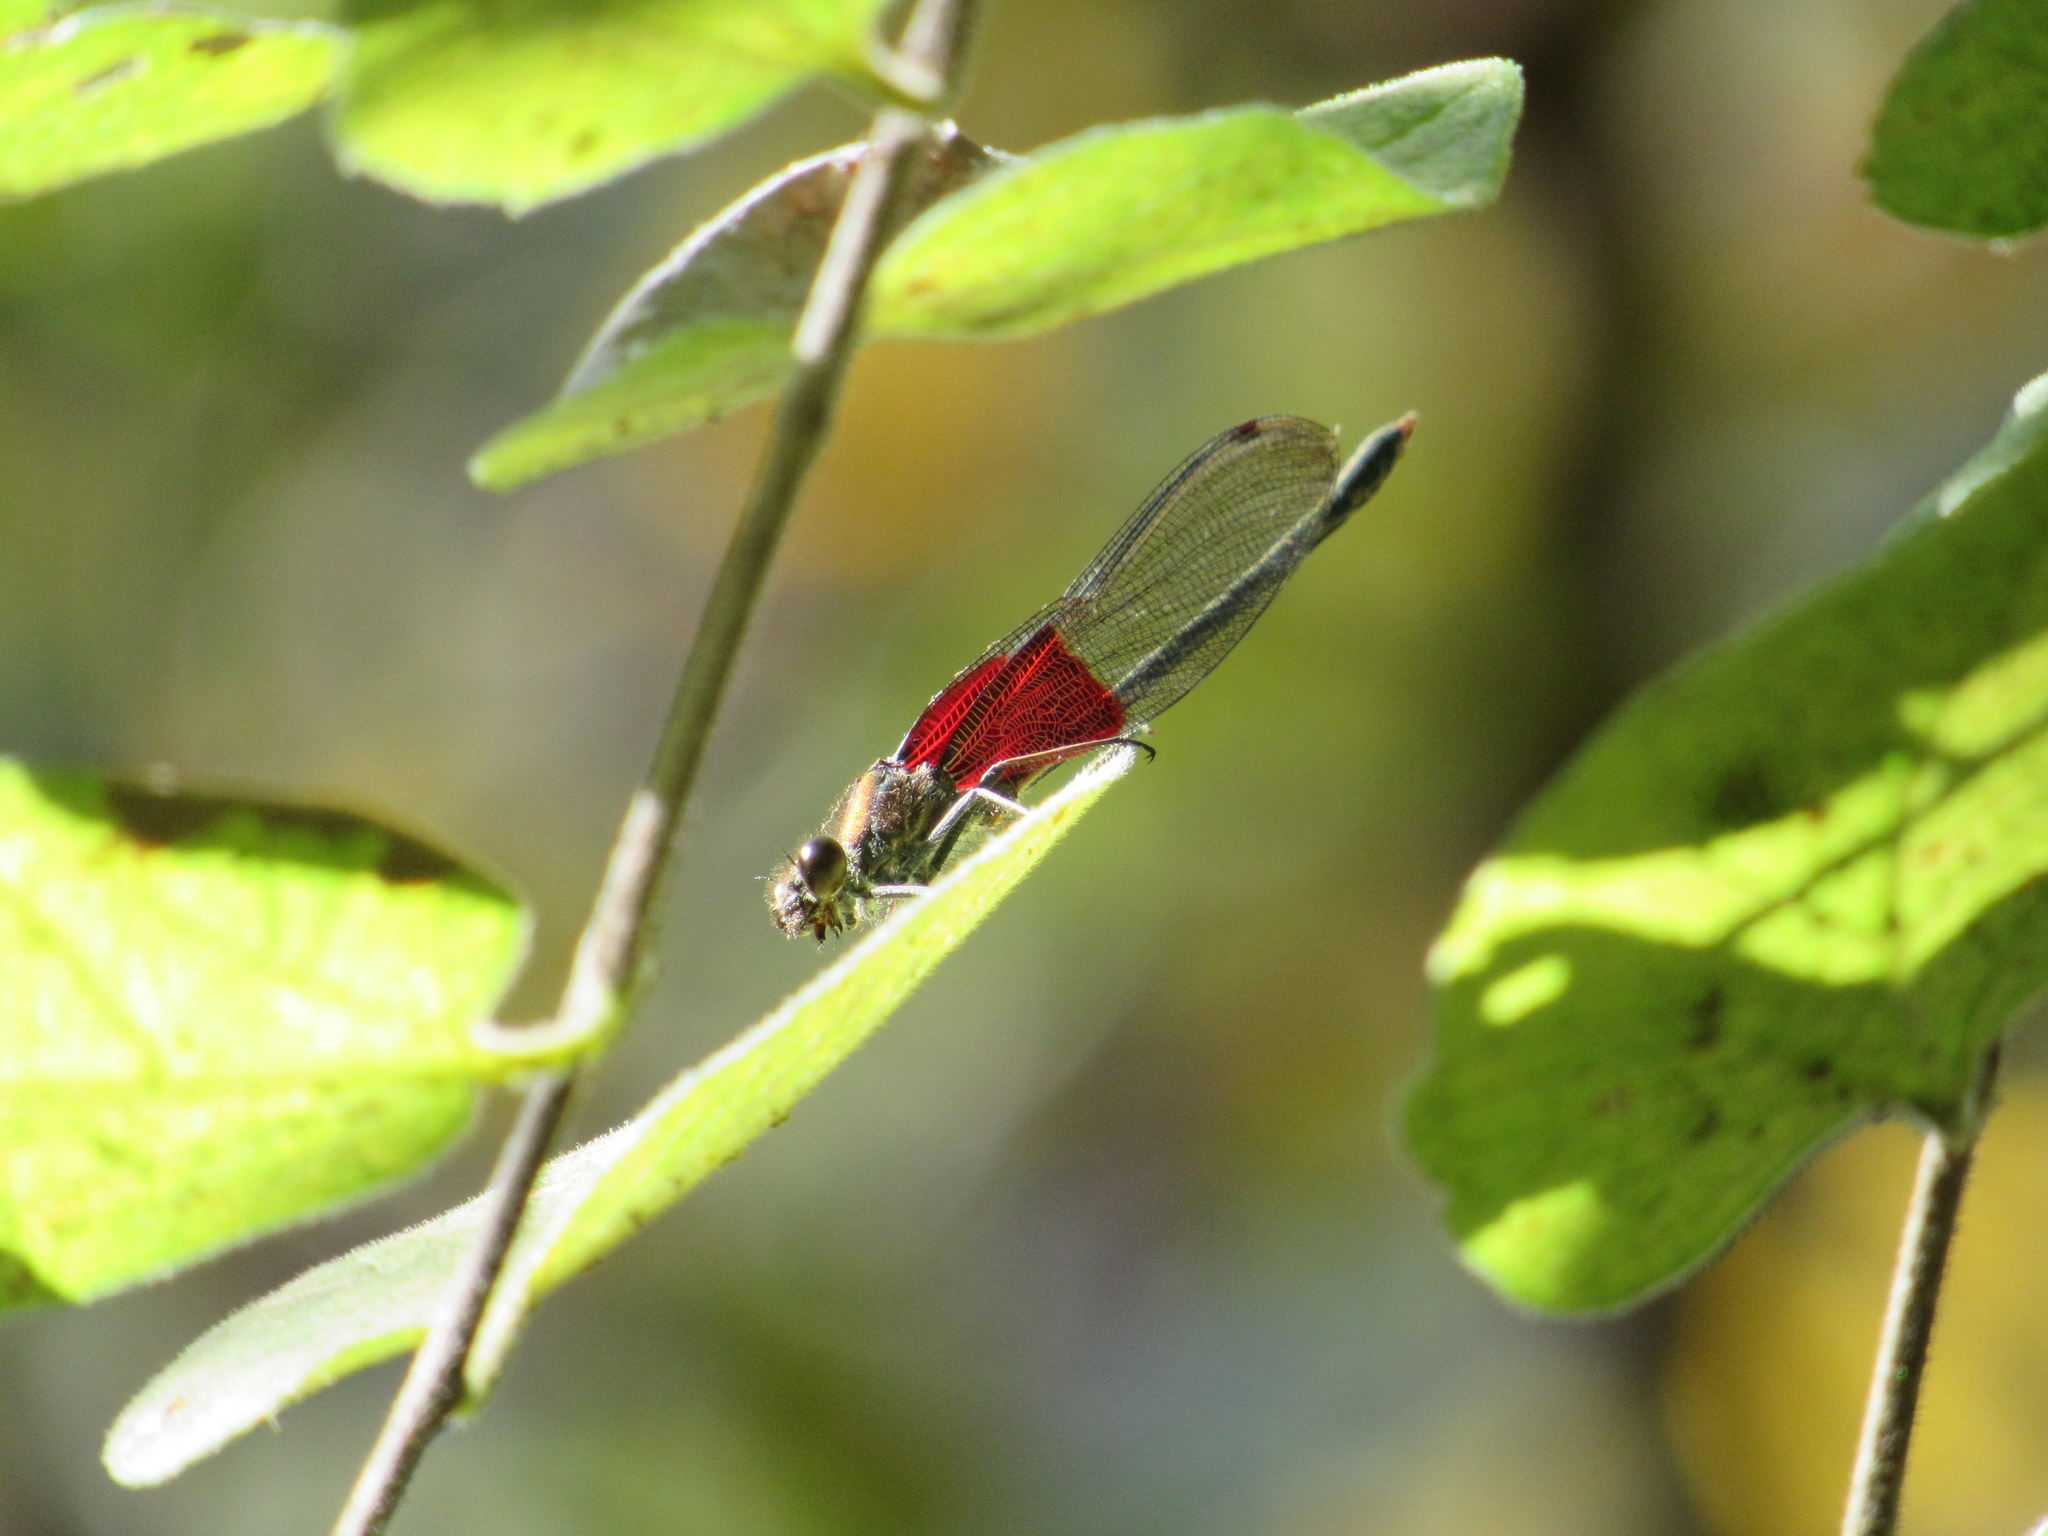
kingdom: Animalia
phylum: Arthropoda
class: Insecta
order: Odonata
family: Calopterygidae
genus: Hetaerina
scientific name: Hetaerina americana
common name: American rubyspot
